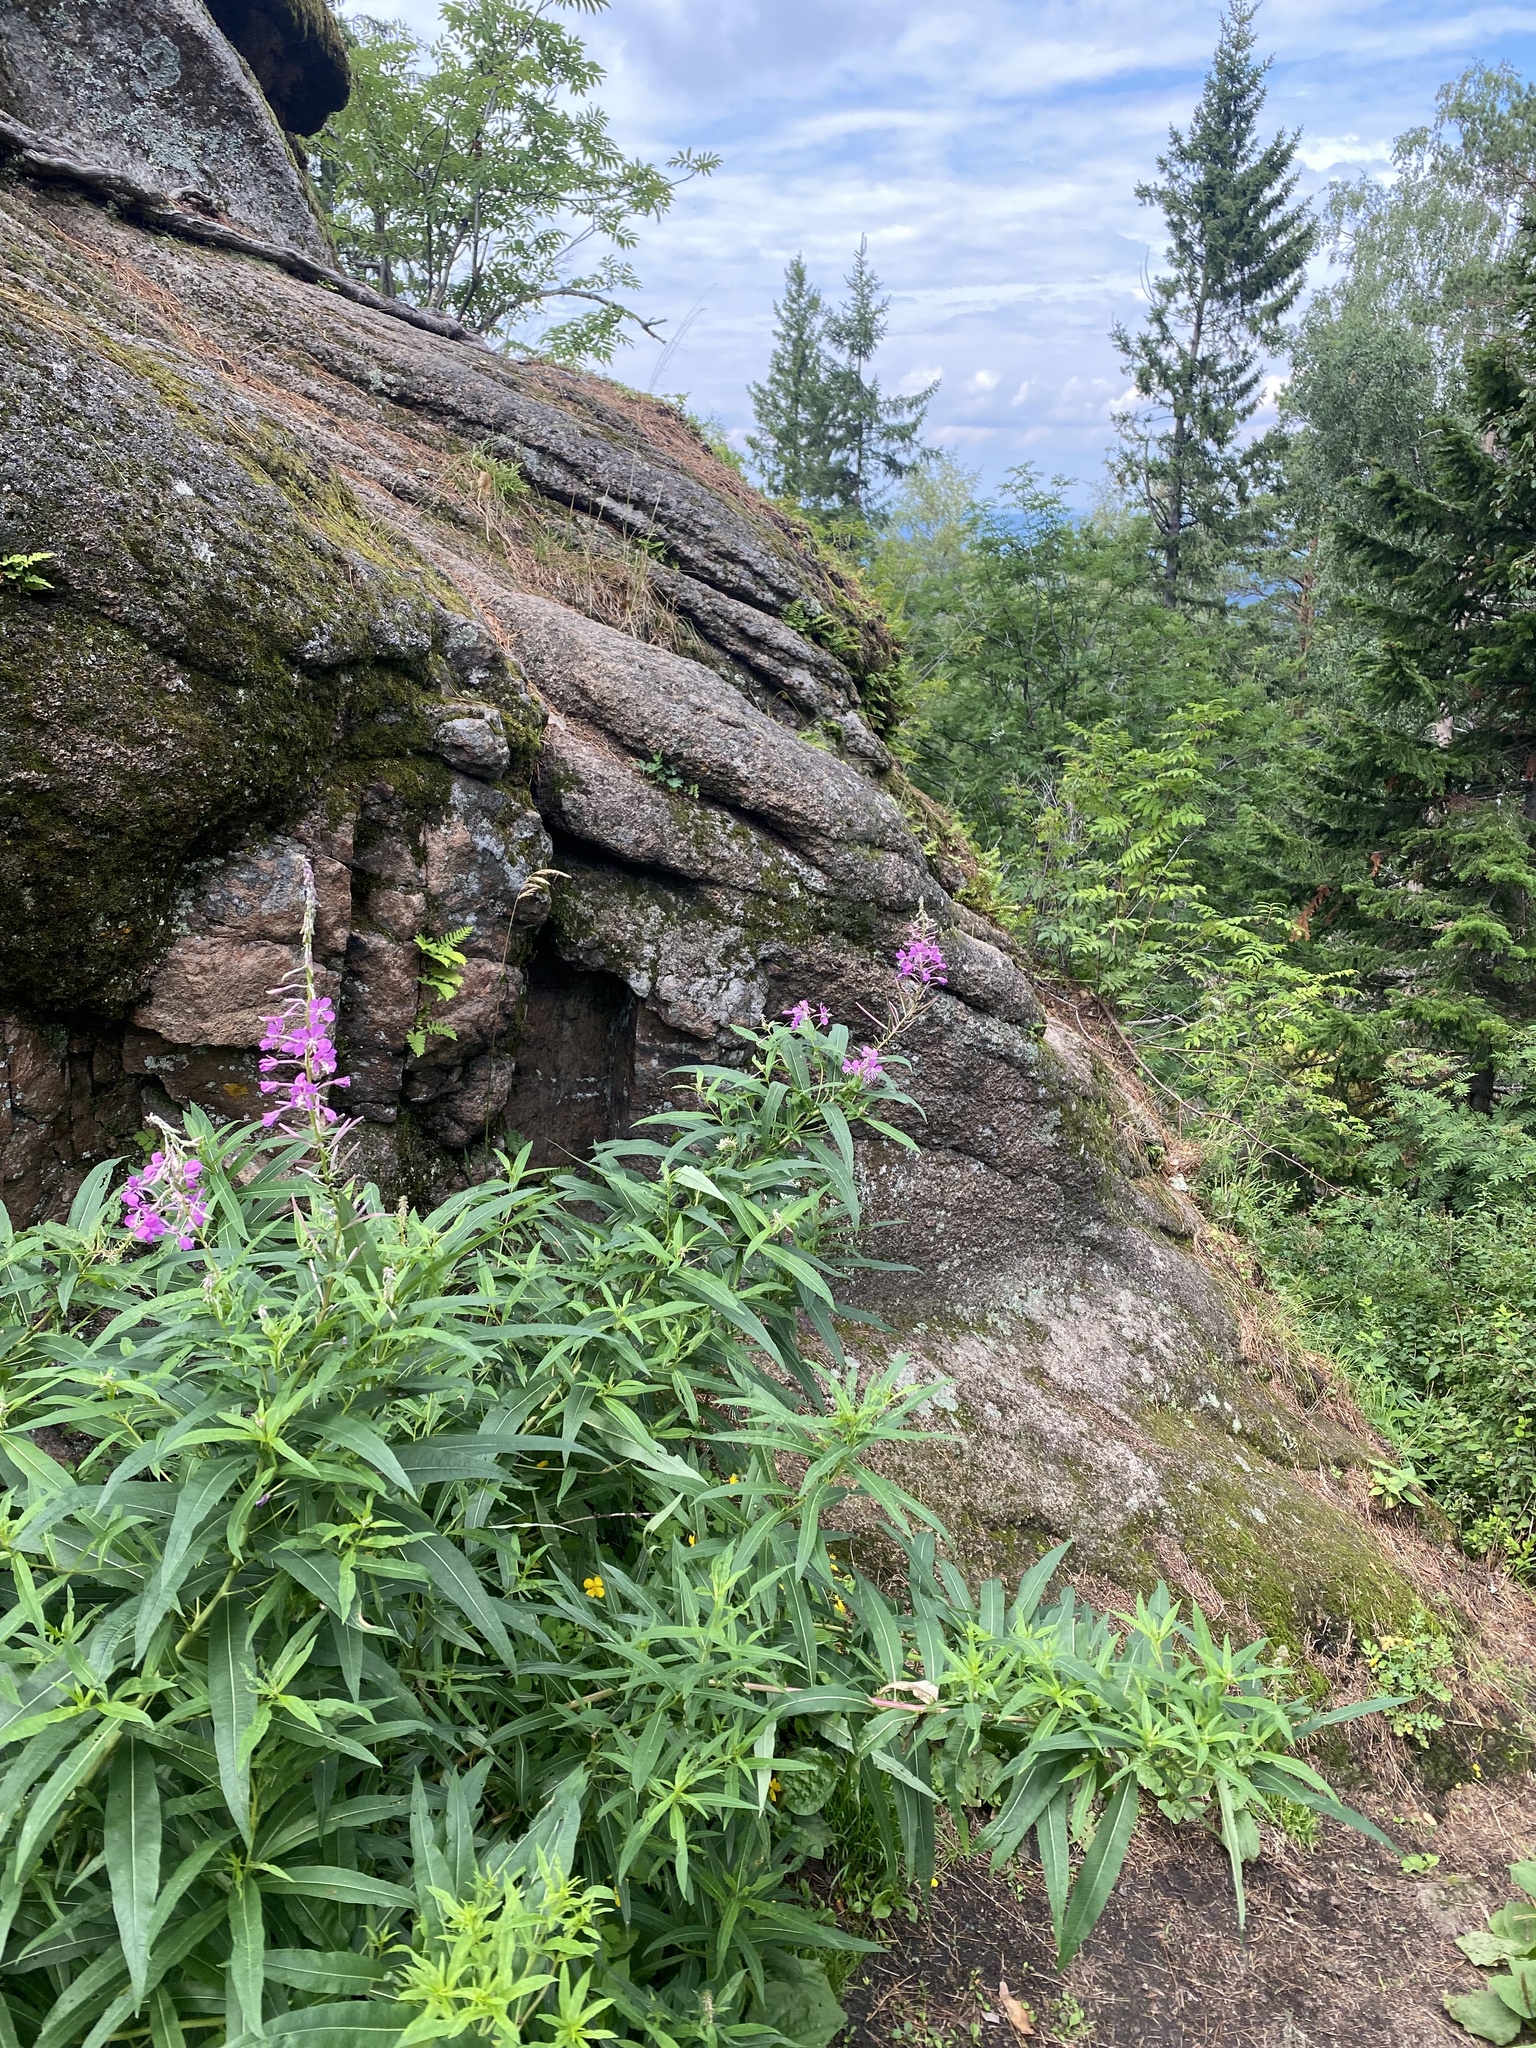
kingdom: Plantae
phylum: Tracheophyta
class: Magnoliopsida
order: Myrtales
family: Onagraceae
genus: Chamaenerion
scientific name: Chamaenerion angustifolium
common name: Fireweed
